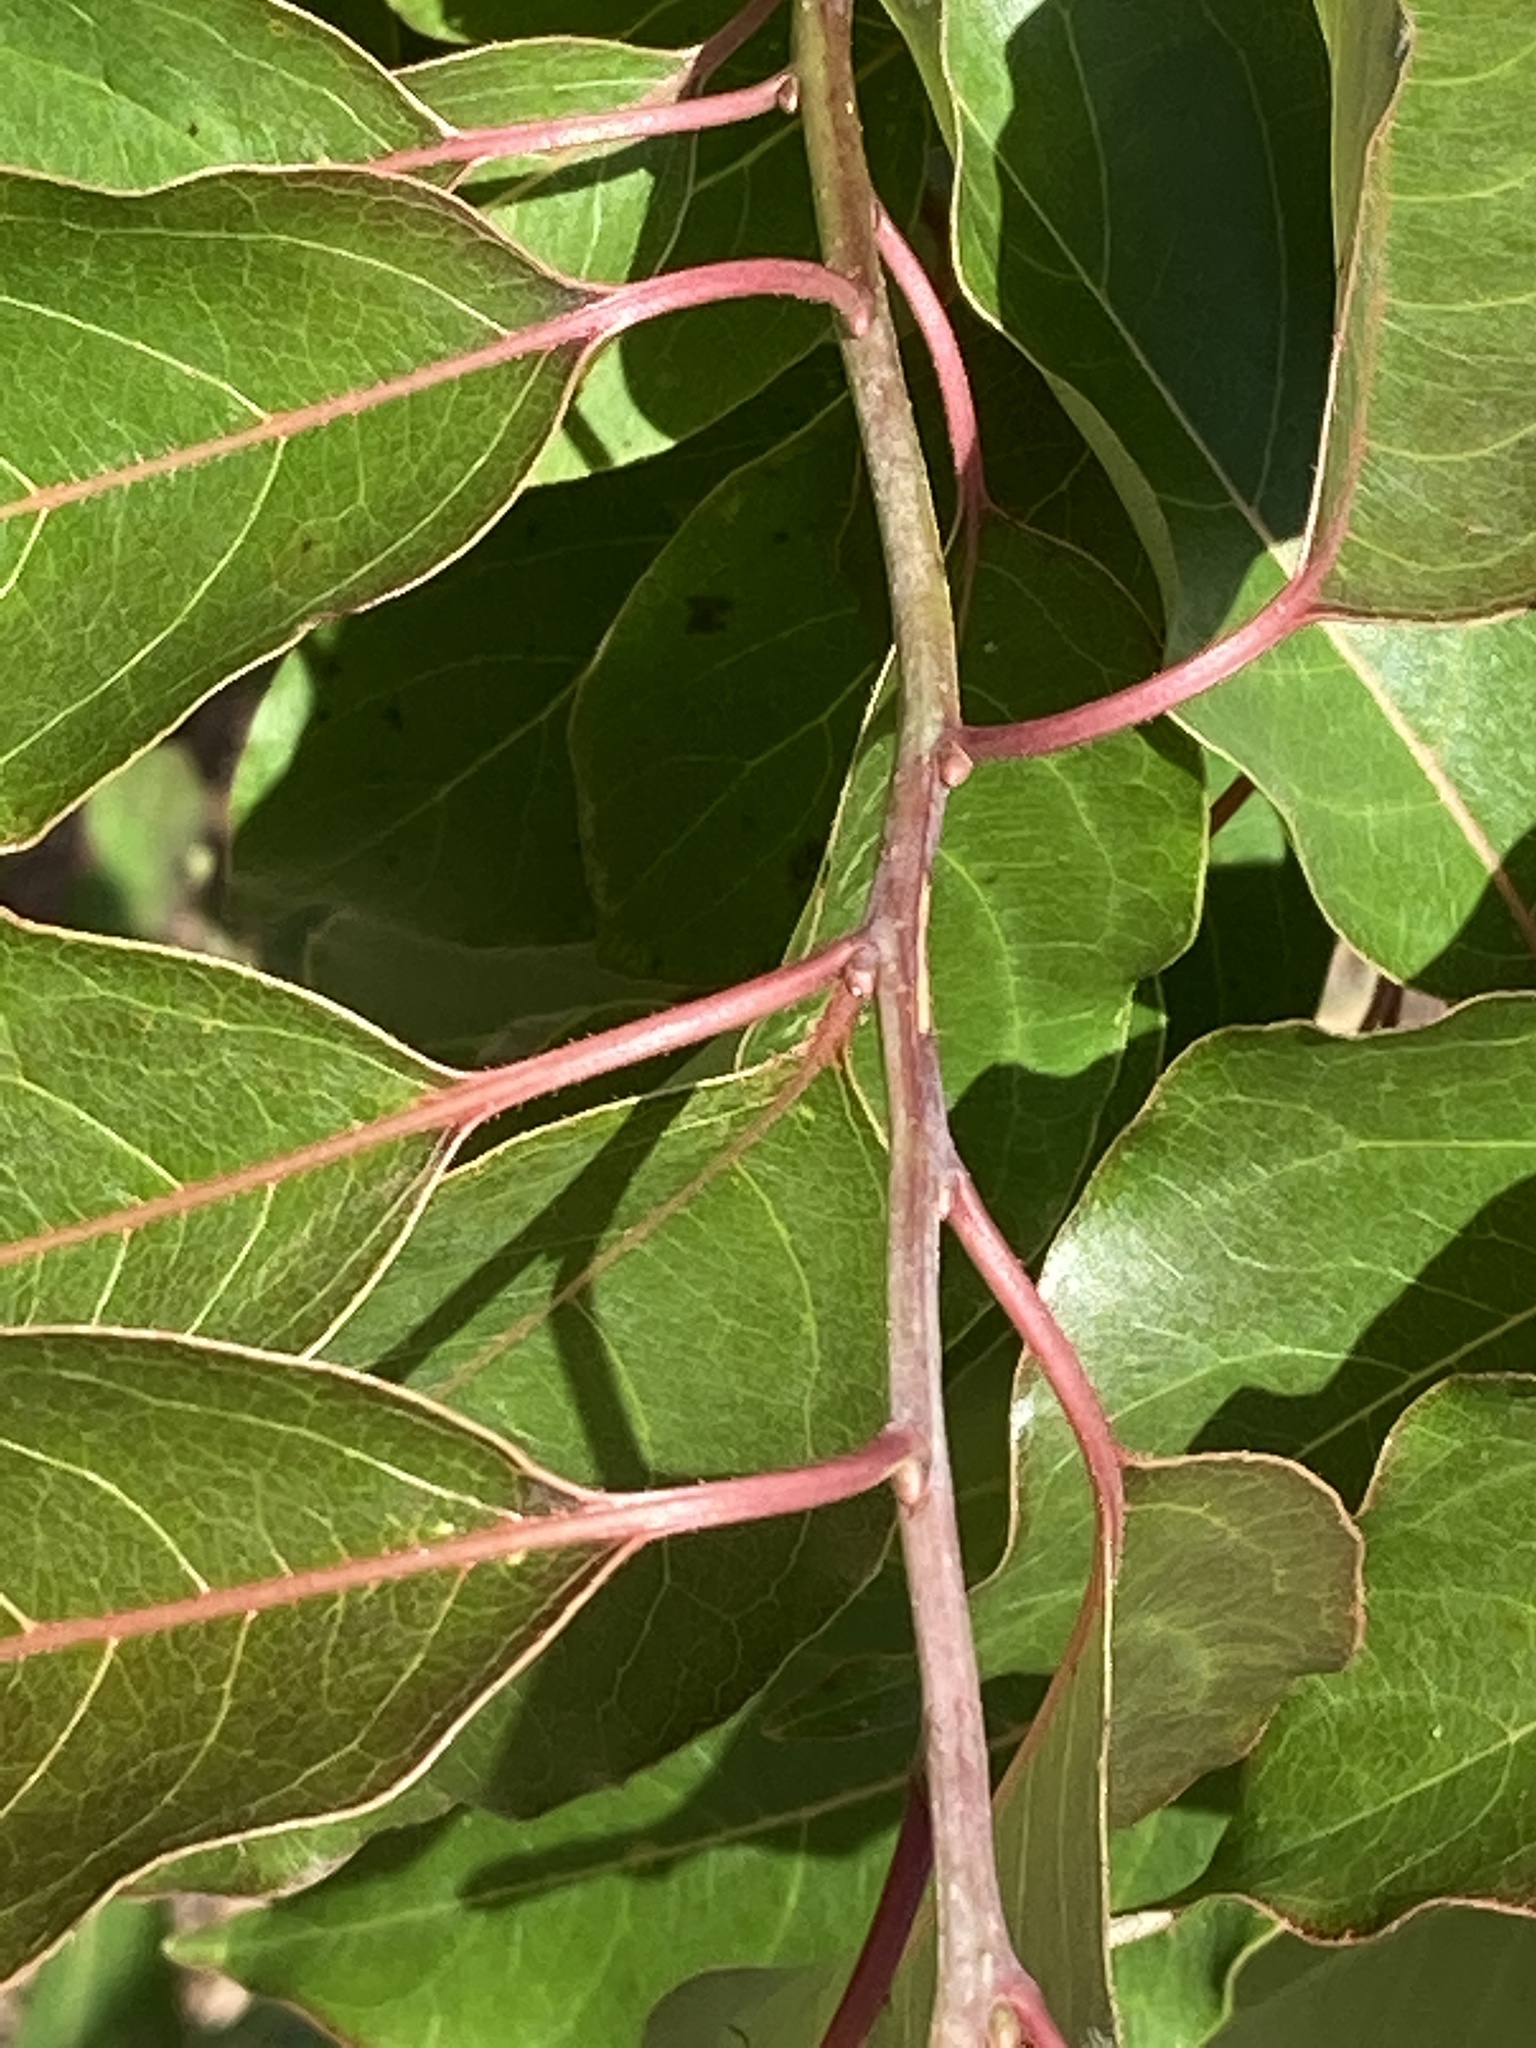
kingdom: Plantae
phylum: Tracheophyta
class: Magnoliopsida
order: Ericales
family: Ebenaceae
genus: Diospyros
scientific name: Diospyros virginiana
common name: Persimmon
